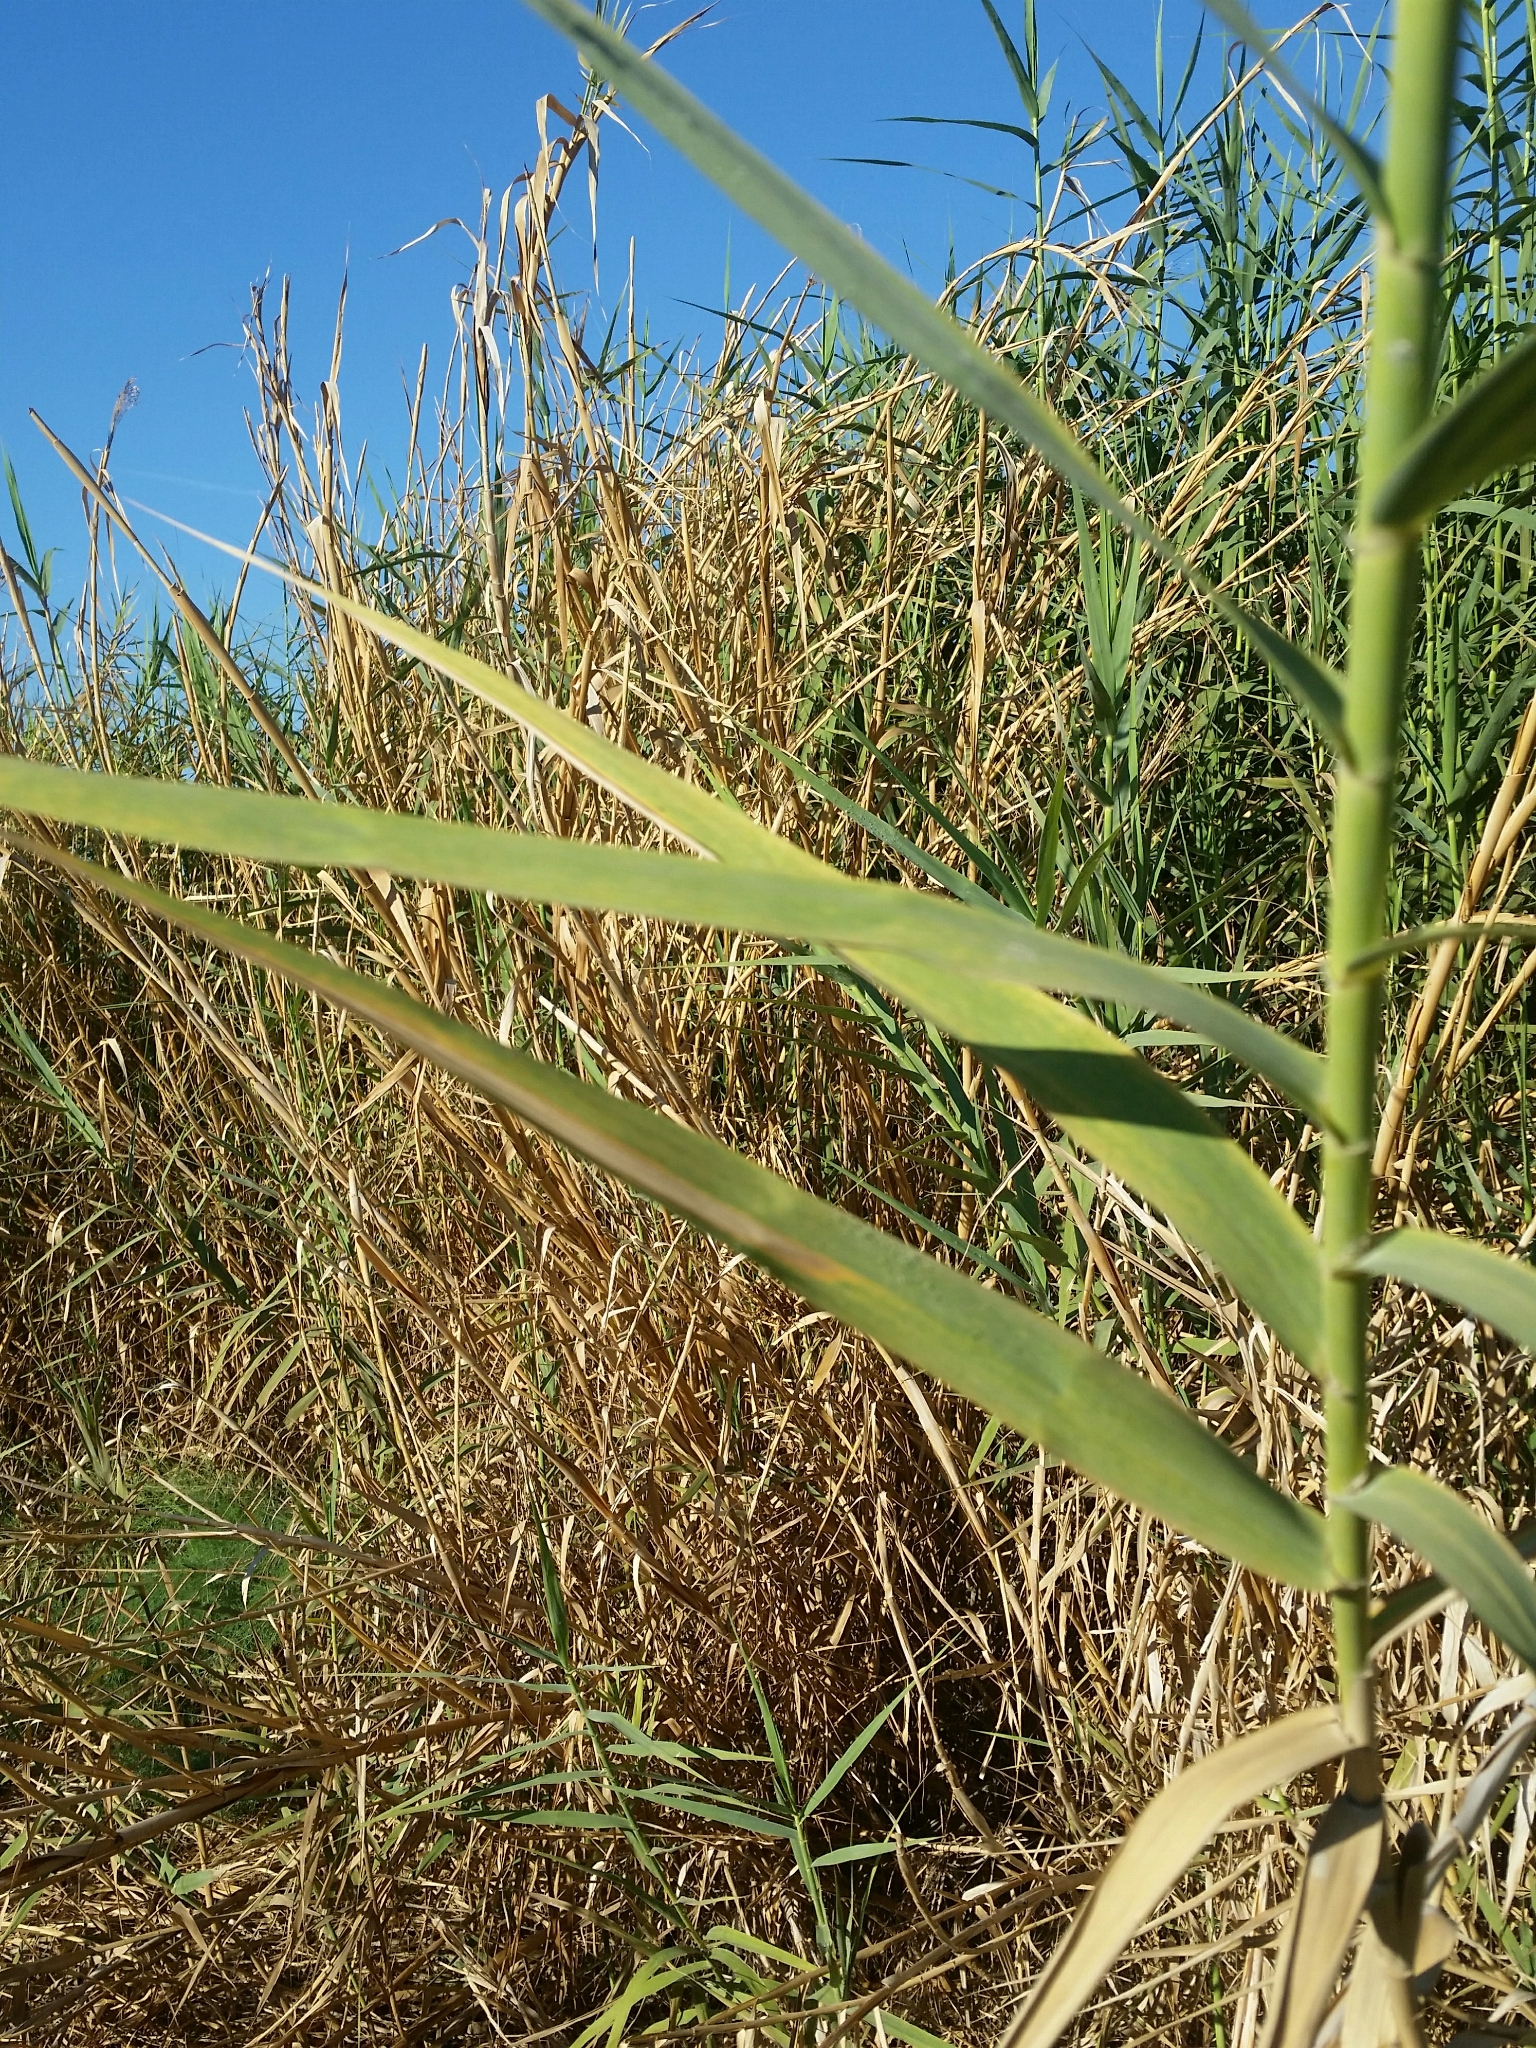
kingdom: Plantae
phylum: Tracheophyta
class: Liliopsida
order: Poales
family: Poaceae
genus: Phragmites
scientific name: Phragmites australis
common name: Common reed
